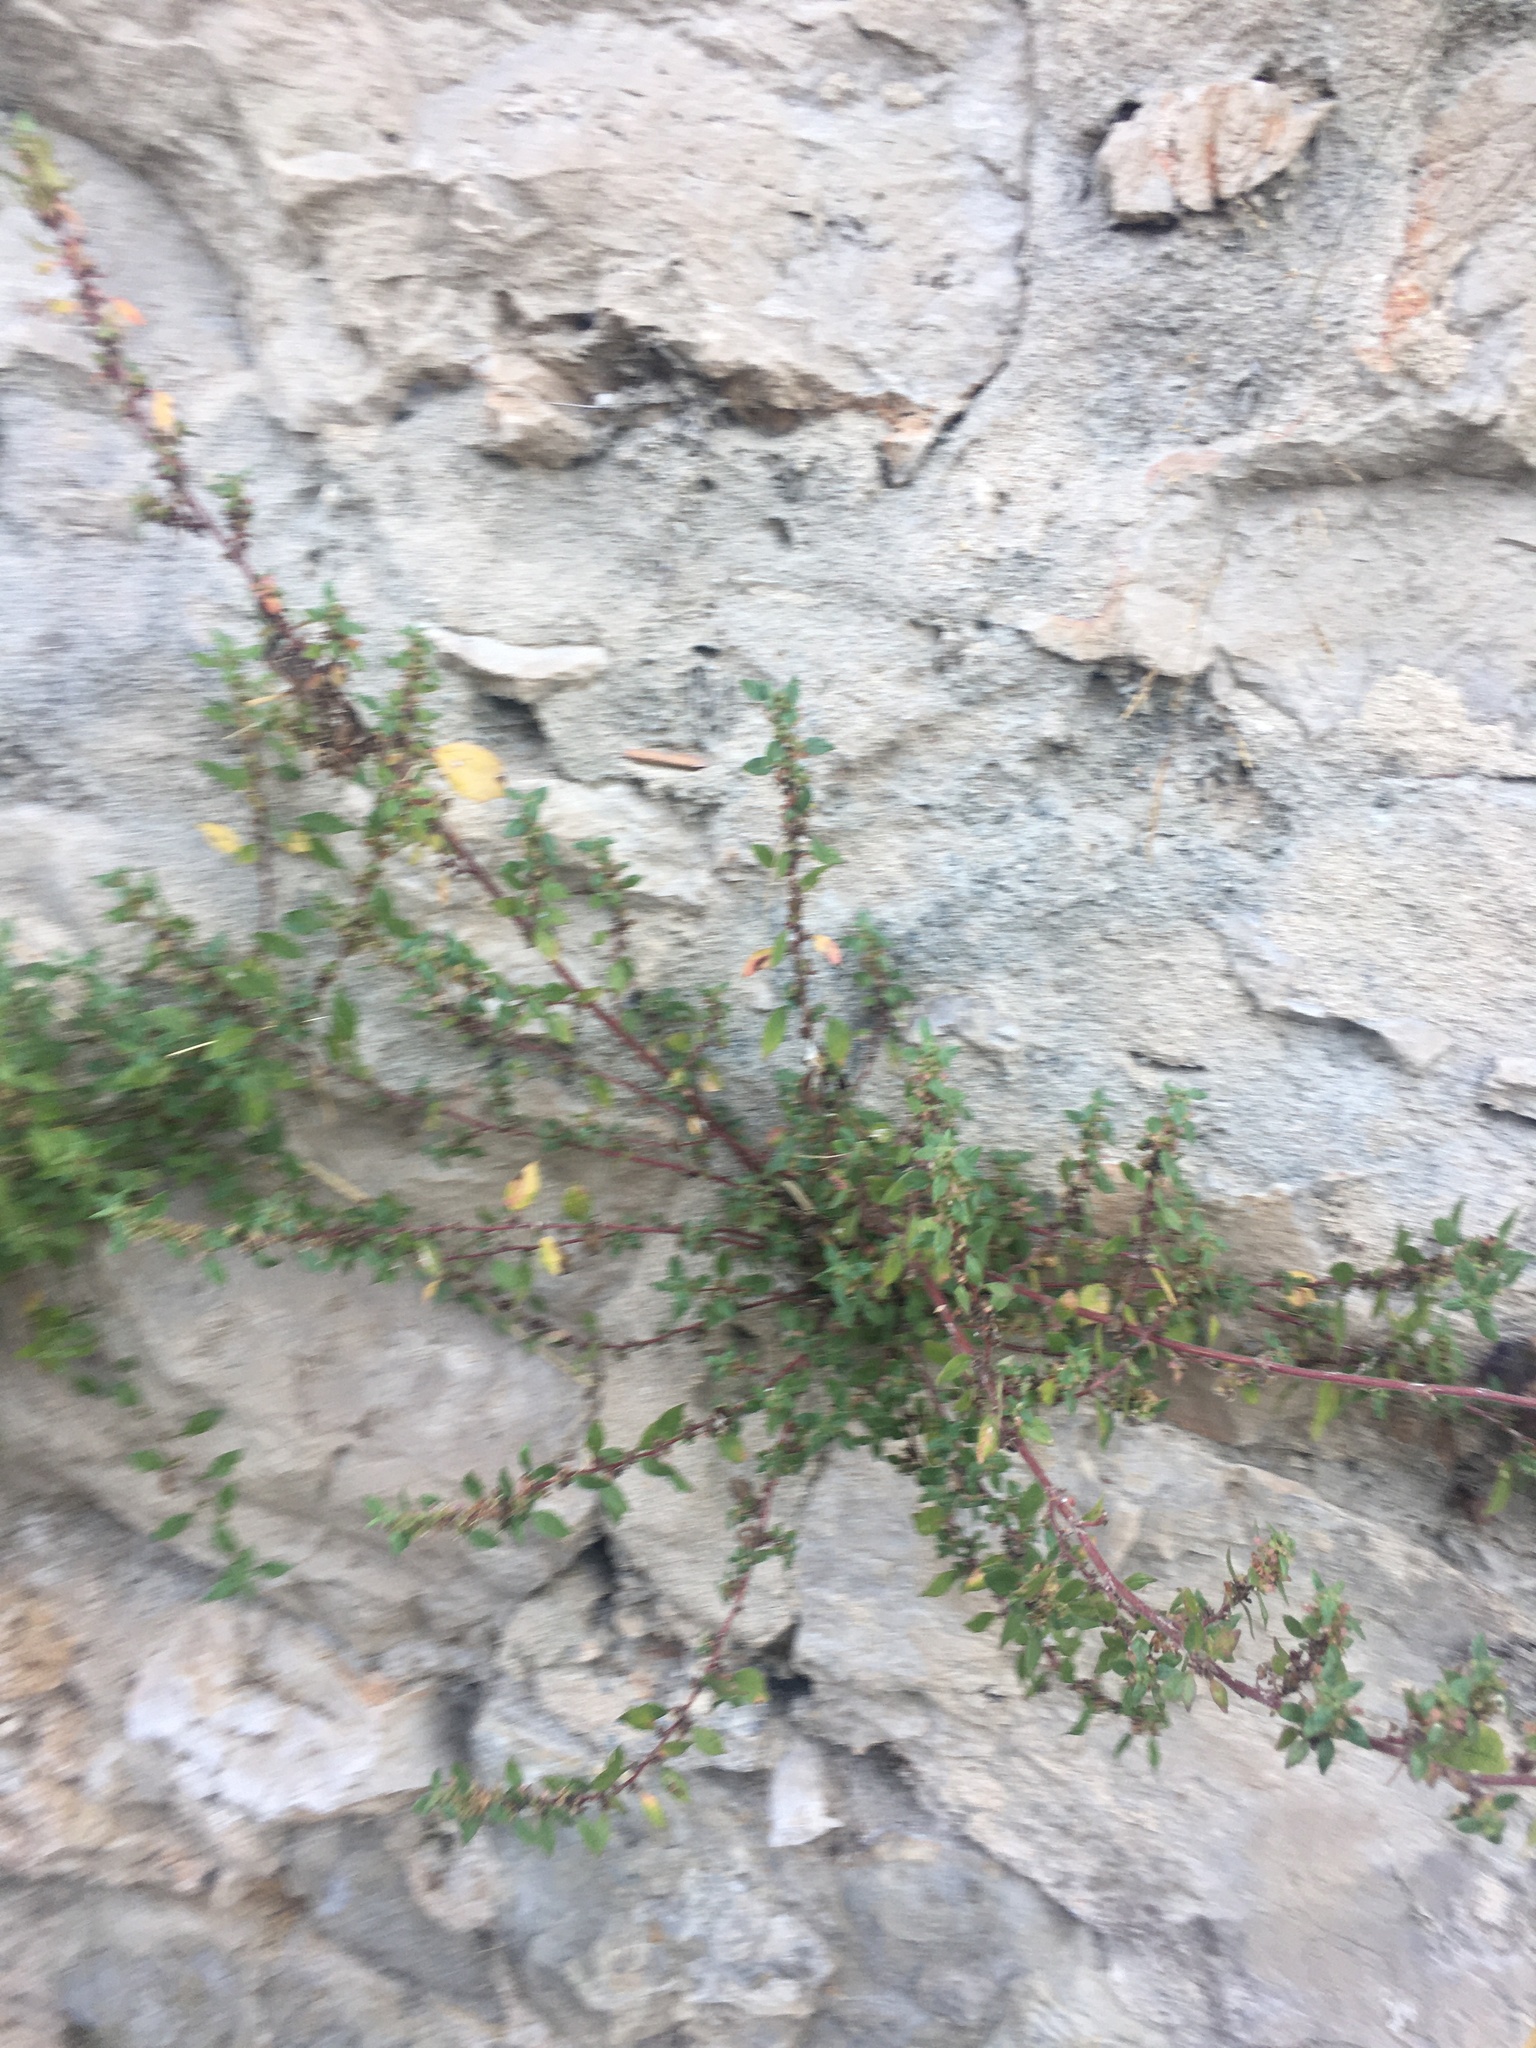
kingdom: Plantae
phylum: Tracheophyta
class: Magnoliopsida
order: Rosales
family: Urticaceae
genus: Parietaria
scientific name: Parietaria judaica
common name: Pellitory-of-the-wall
